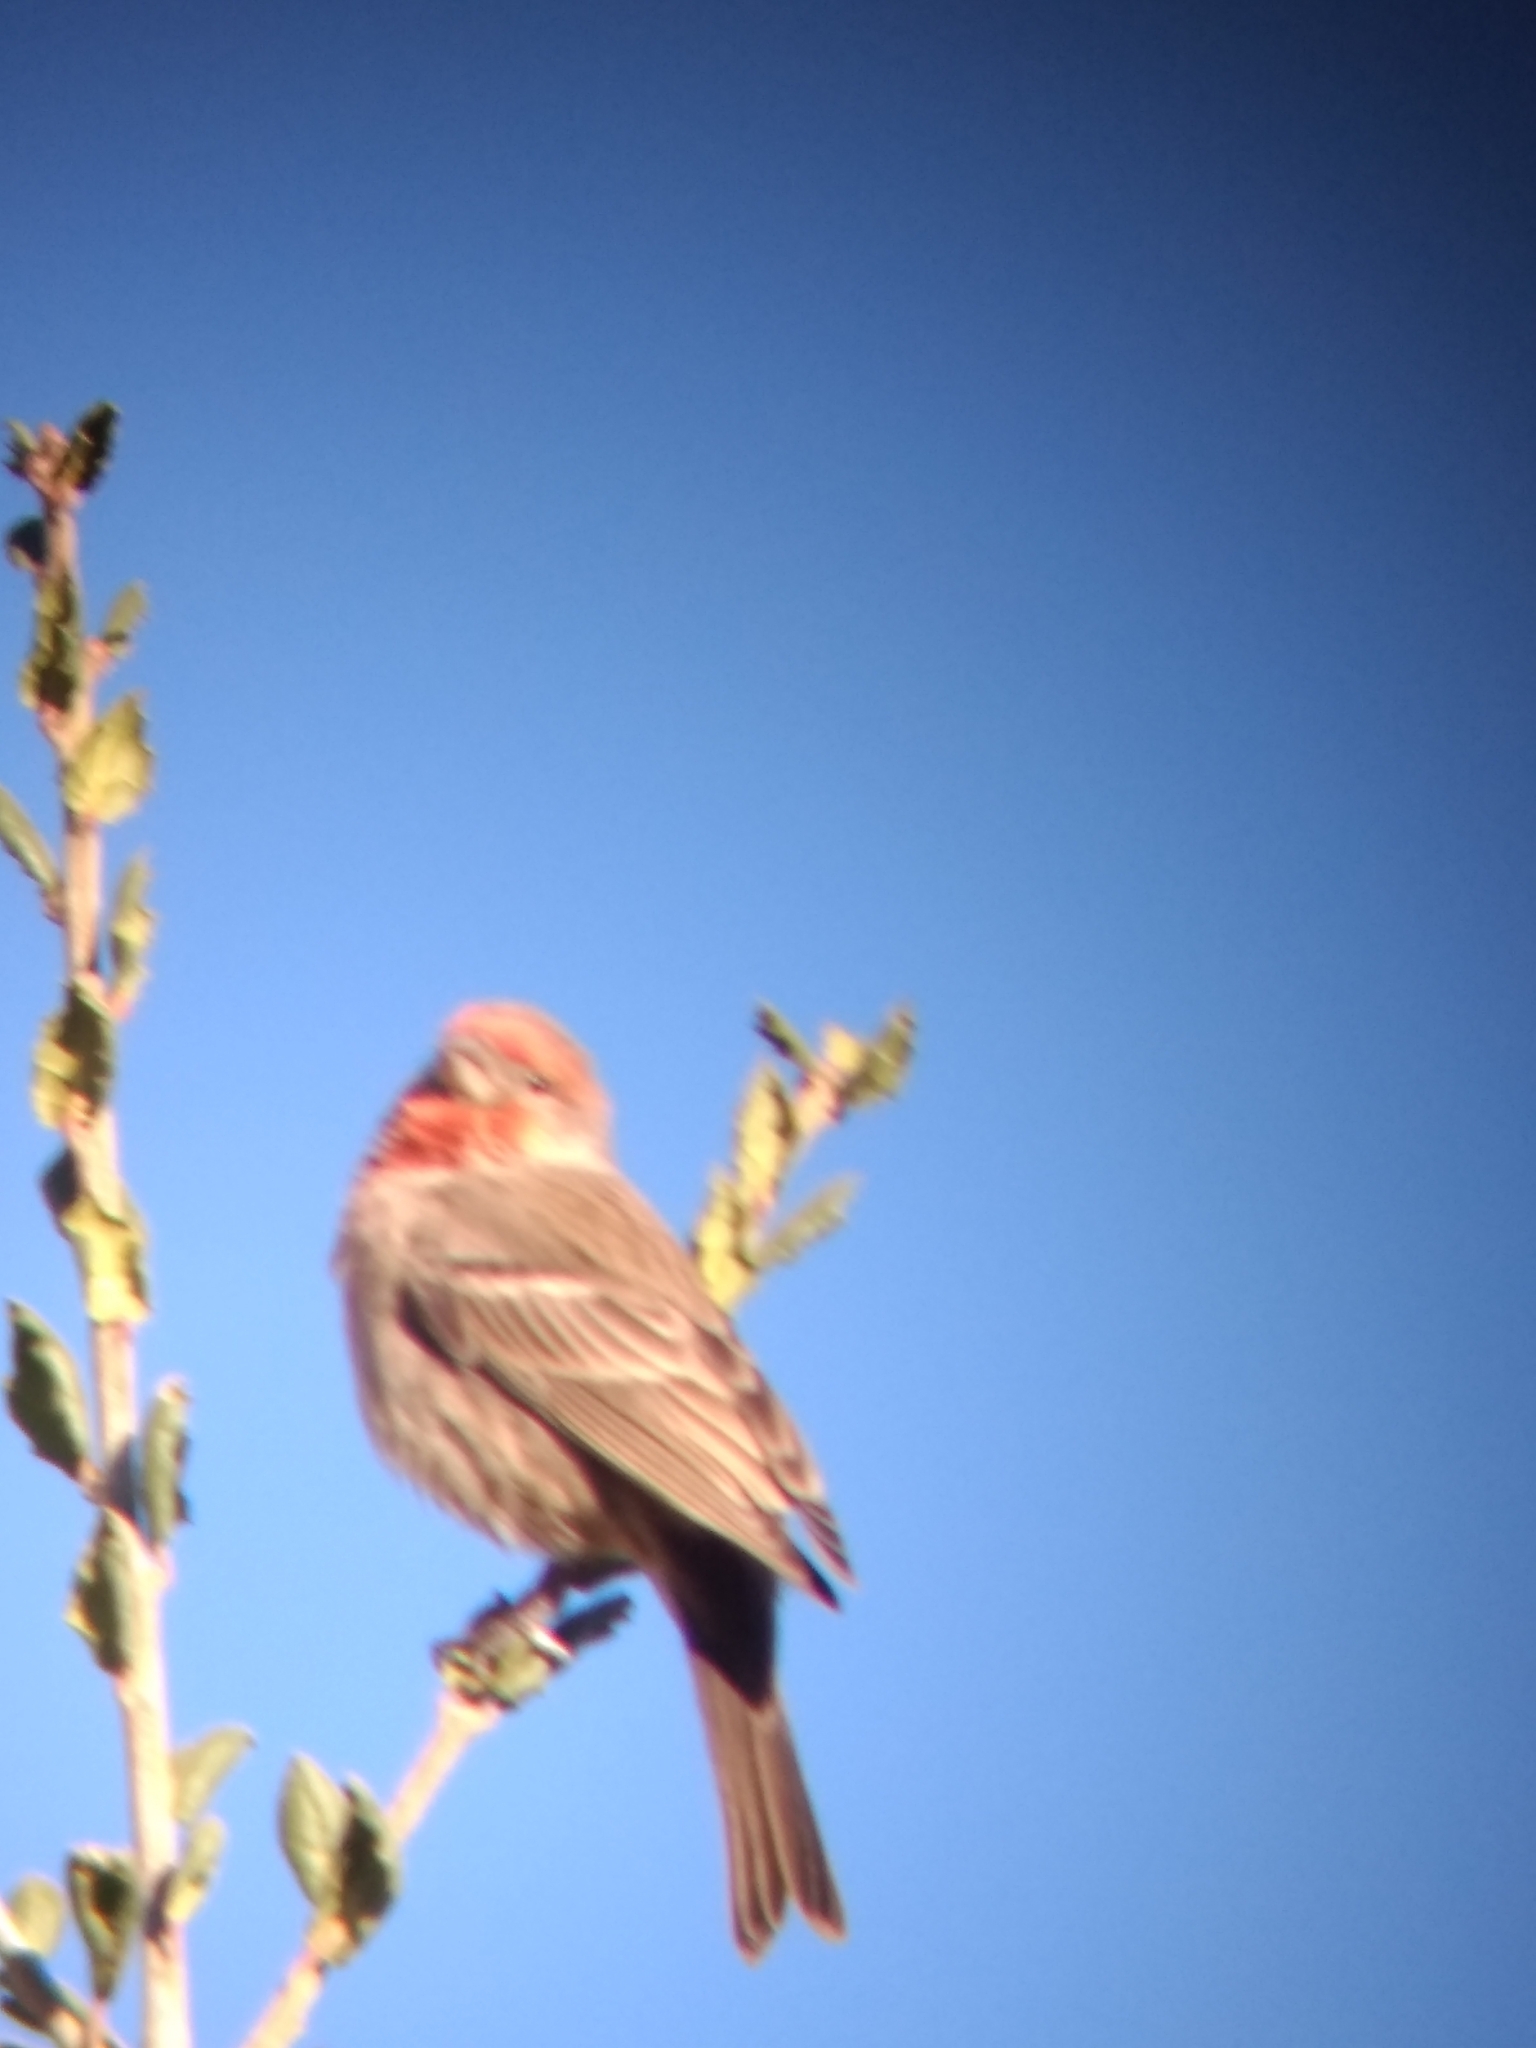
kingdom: Animalia
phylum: Chordata
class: Aves
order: Passeriformes
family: Fringillidae
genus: Haemorhous
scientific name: Haemorhous mexicanus
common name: House finch
